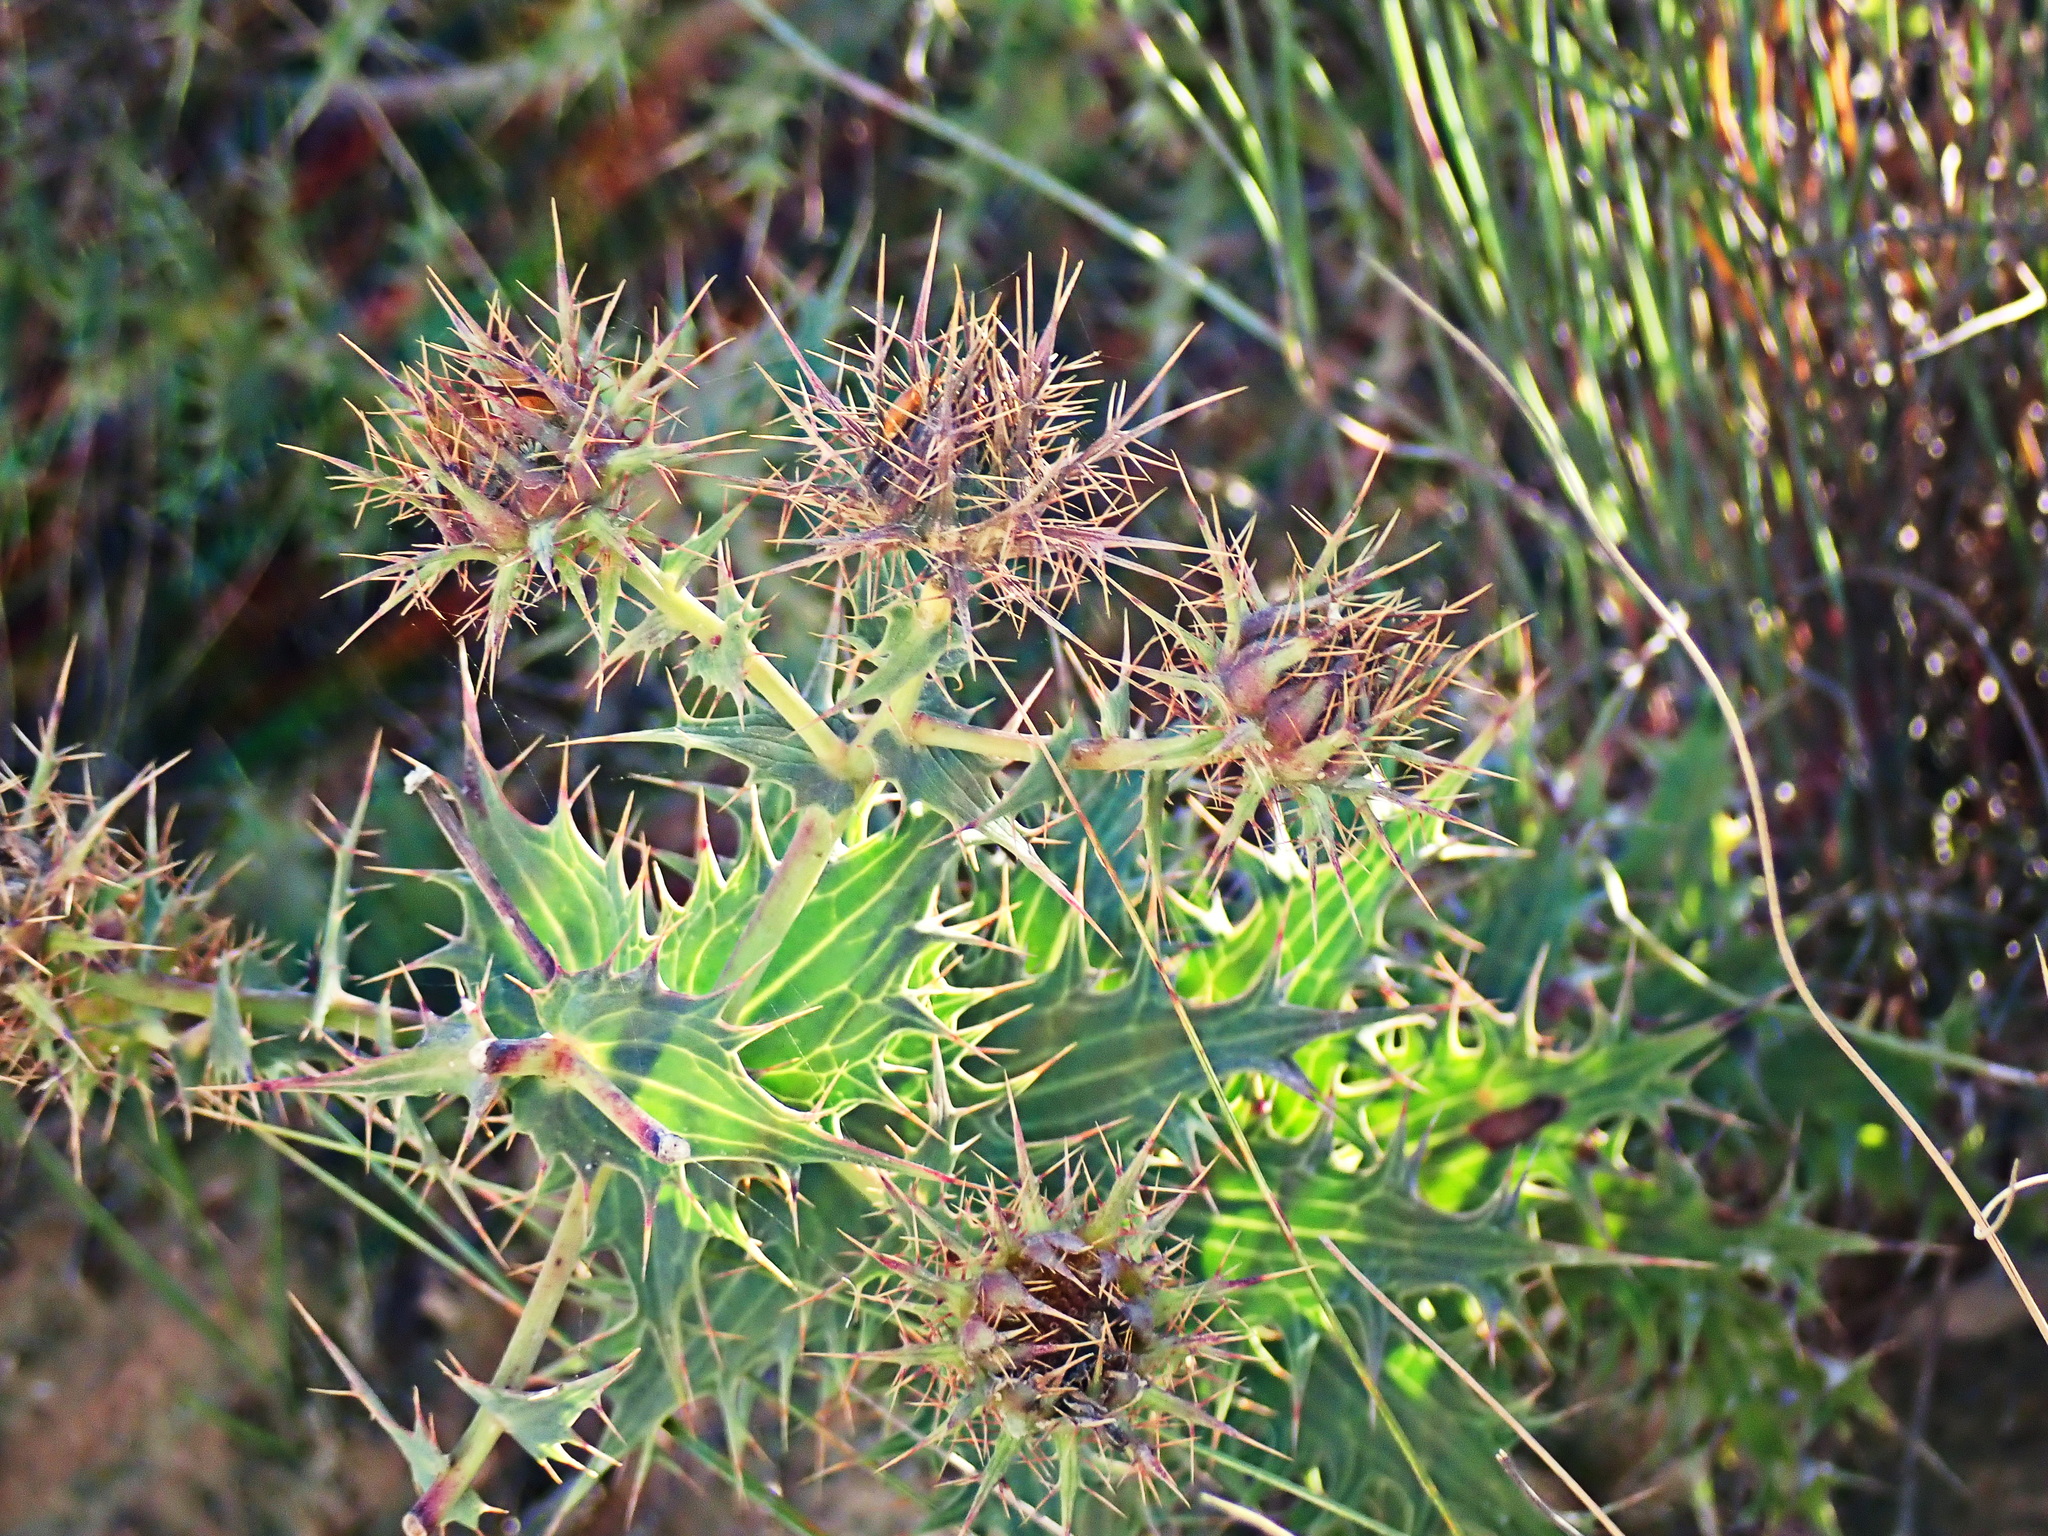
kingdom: Plantae
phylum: Tracheophyta
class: Magnoliopsida
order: Asterales
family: Asteraceae
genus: Berkheya
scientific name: Berkheya cruciata
